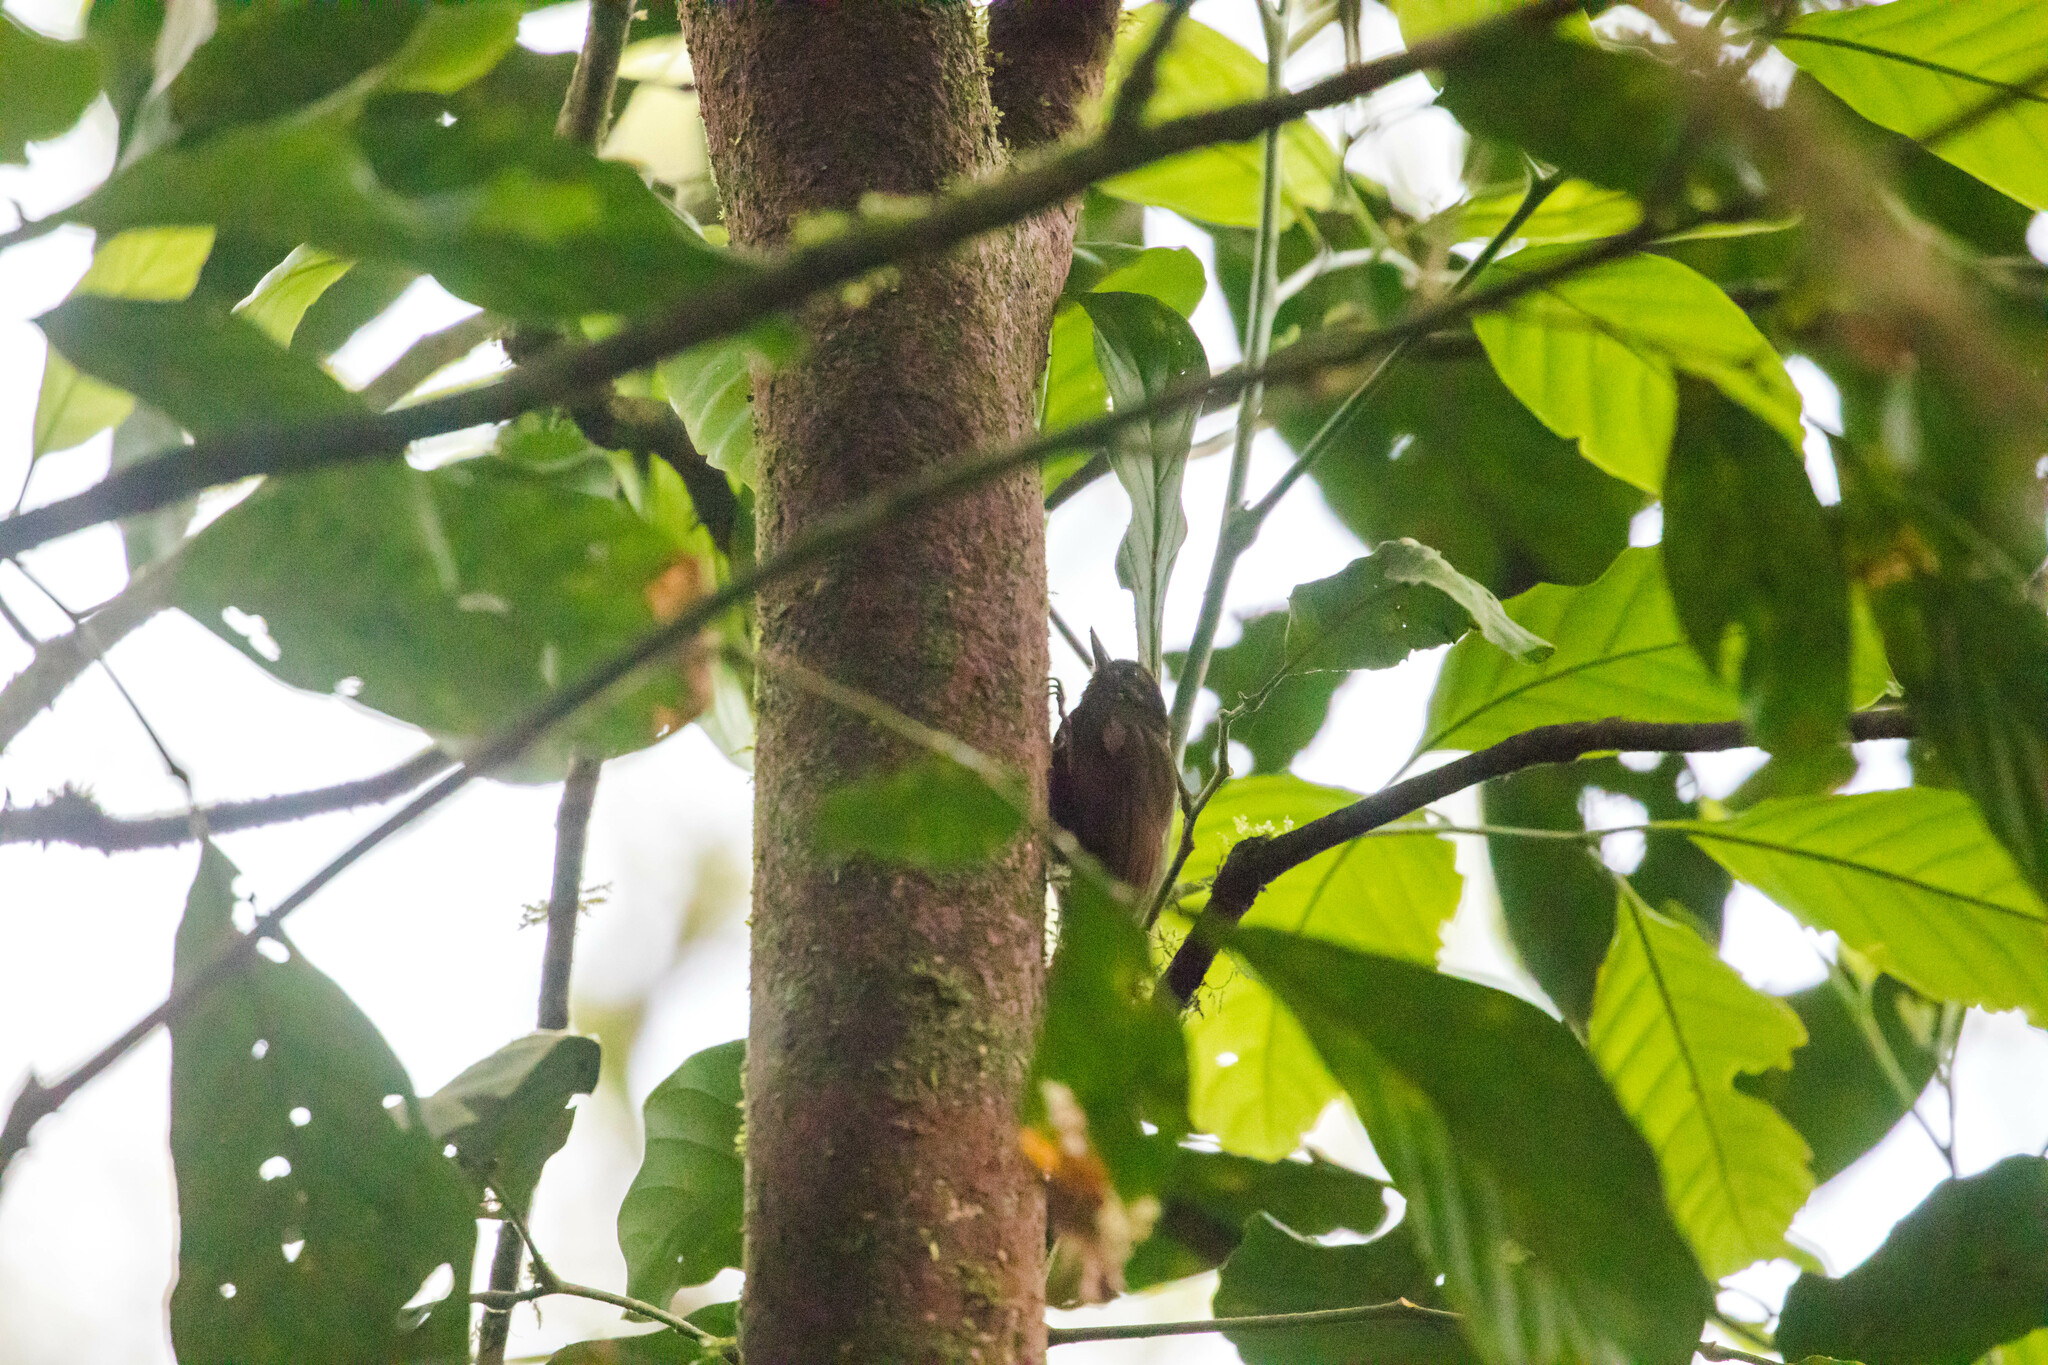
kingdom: Animalia
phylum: Chordata
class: Aves
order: Passeriformes
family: Furnariidae
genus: Glyphorynchus
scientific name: Glyphorynchus spirurus
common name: Wedge-billed woodcreeper
